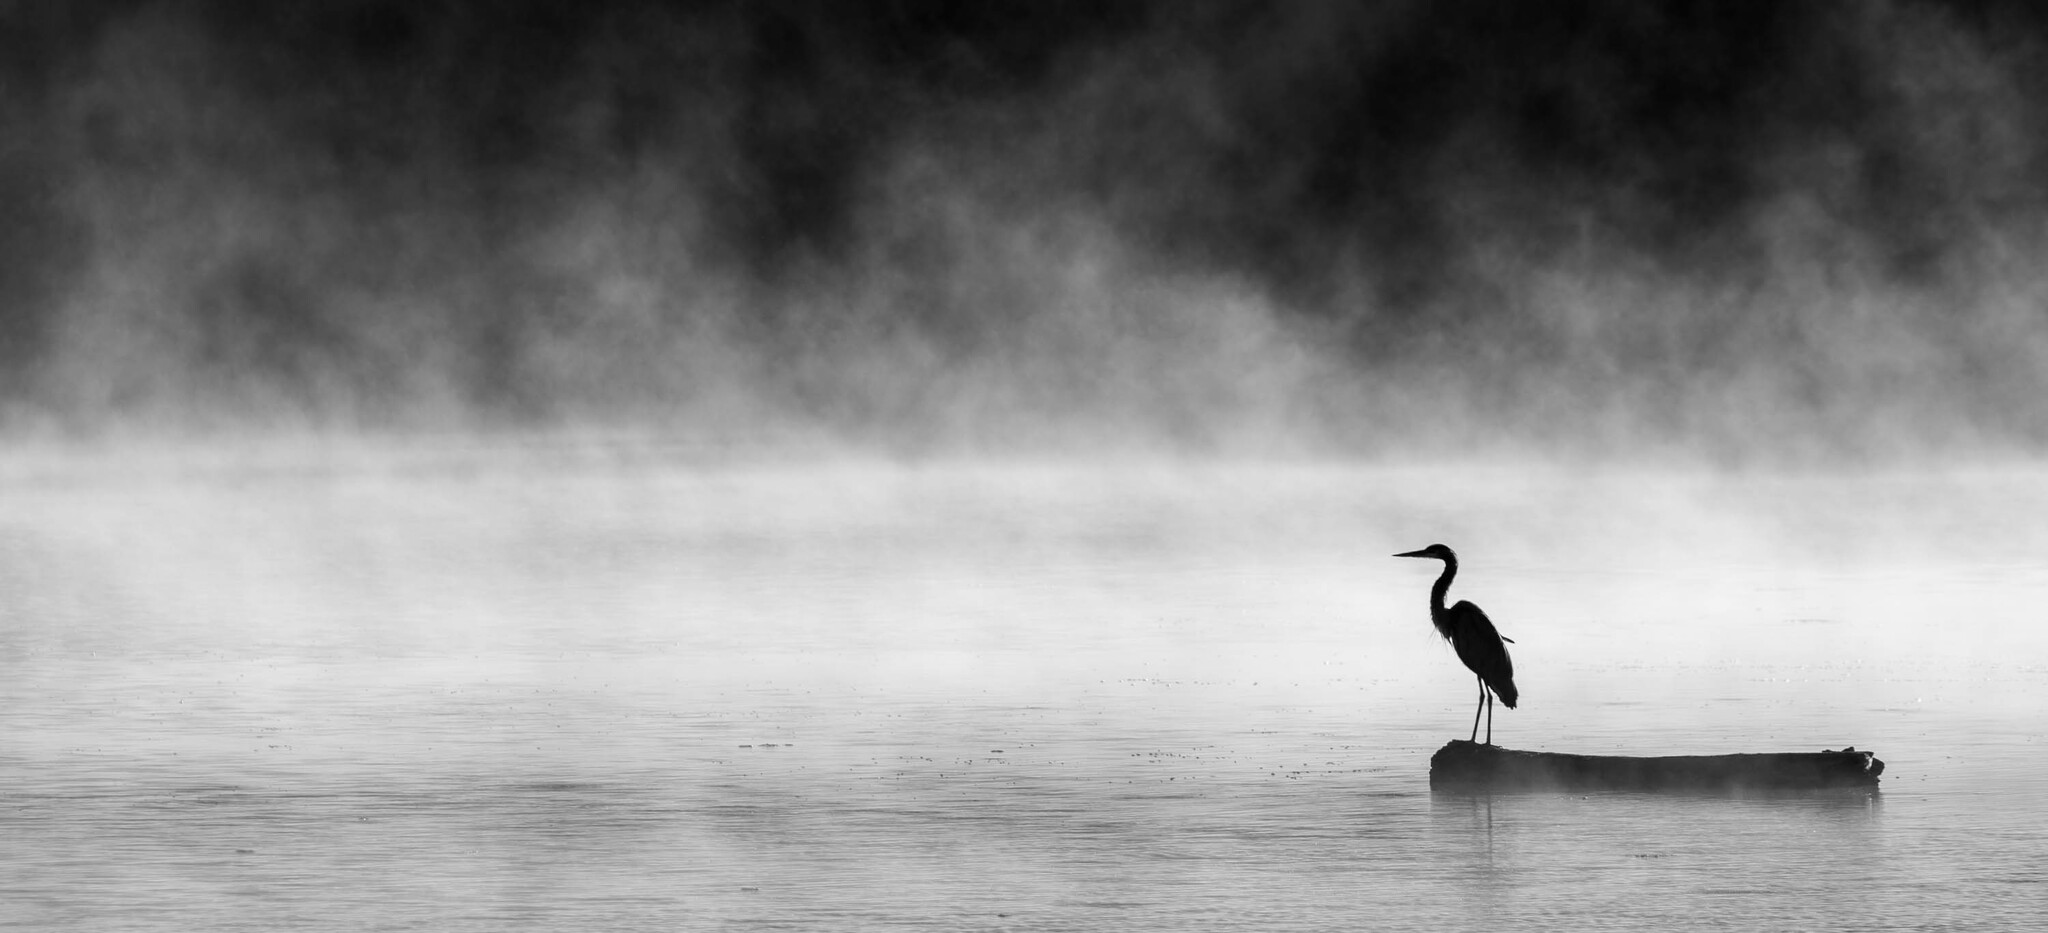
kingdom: Animalia
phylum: Chordata
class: Aves
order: Pelecaniformes
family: Ardeidae
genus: Ardea
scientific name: Ardea herodias
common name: Great blue heron
